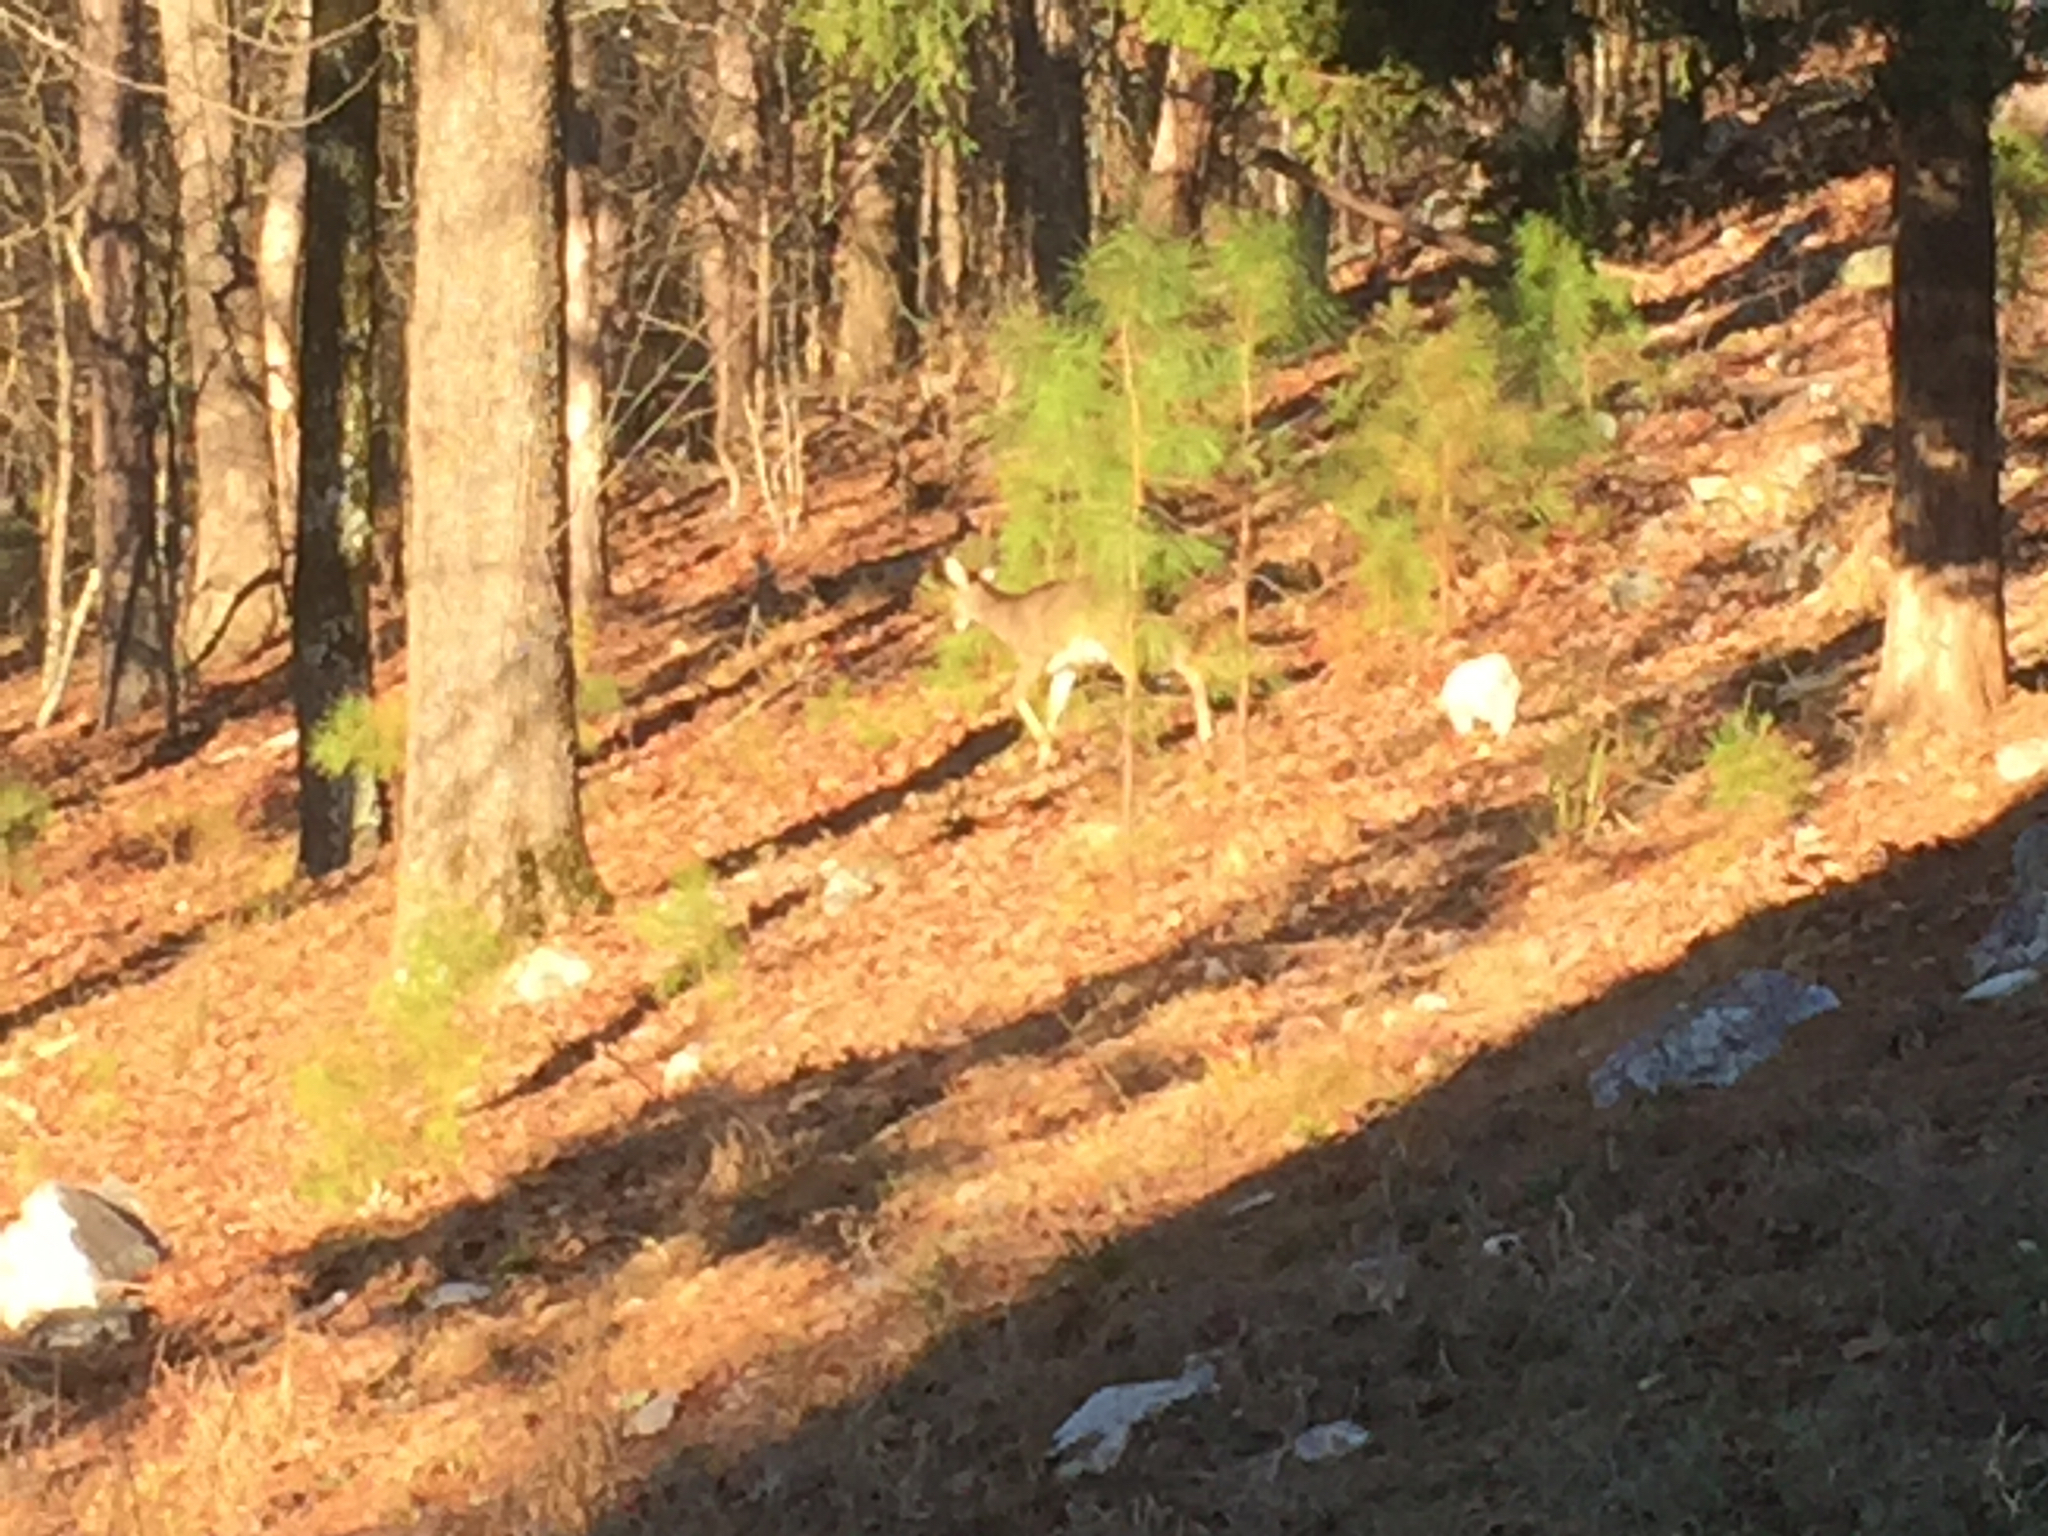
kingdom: Animalia
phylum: Chordata
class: Mammalia
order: Artiodactyla
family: Cervidae
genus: Odocoileus
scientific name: Odocoileus virginianus
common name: White-tailed deer
